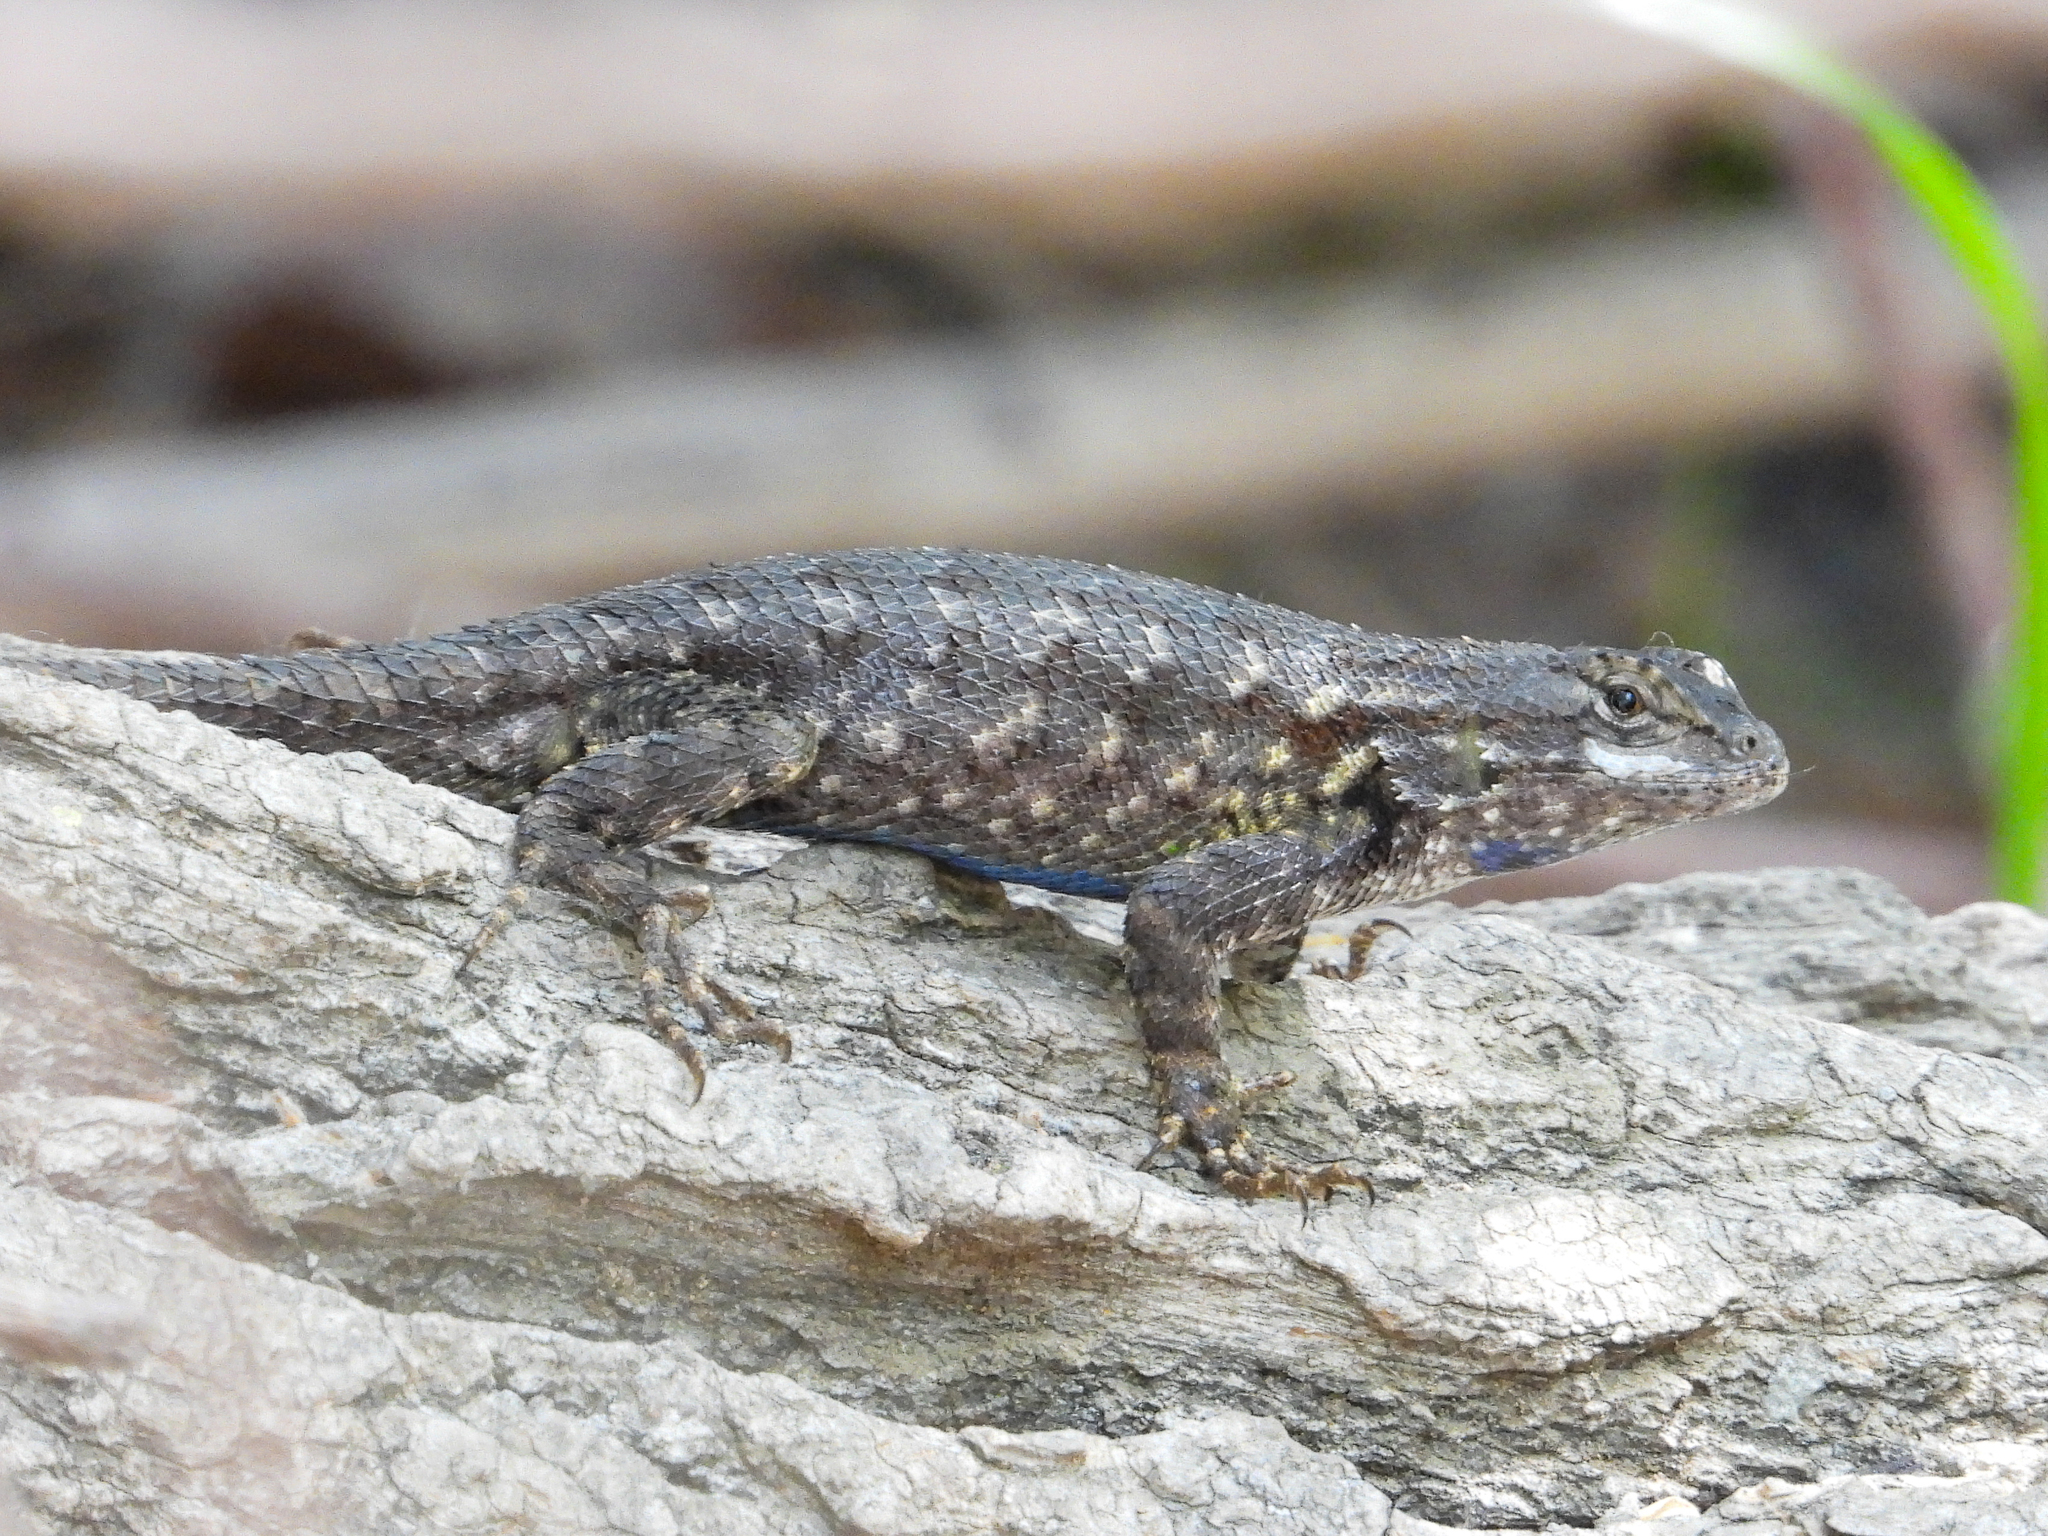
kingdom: Animalia
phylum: Chordata
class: Squamata
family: Phrynosomatidae
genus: Sceloporus
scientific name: Sceloporus occidentalis
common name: Western fence lizard
